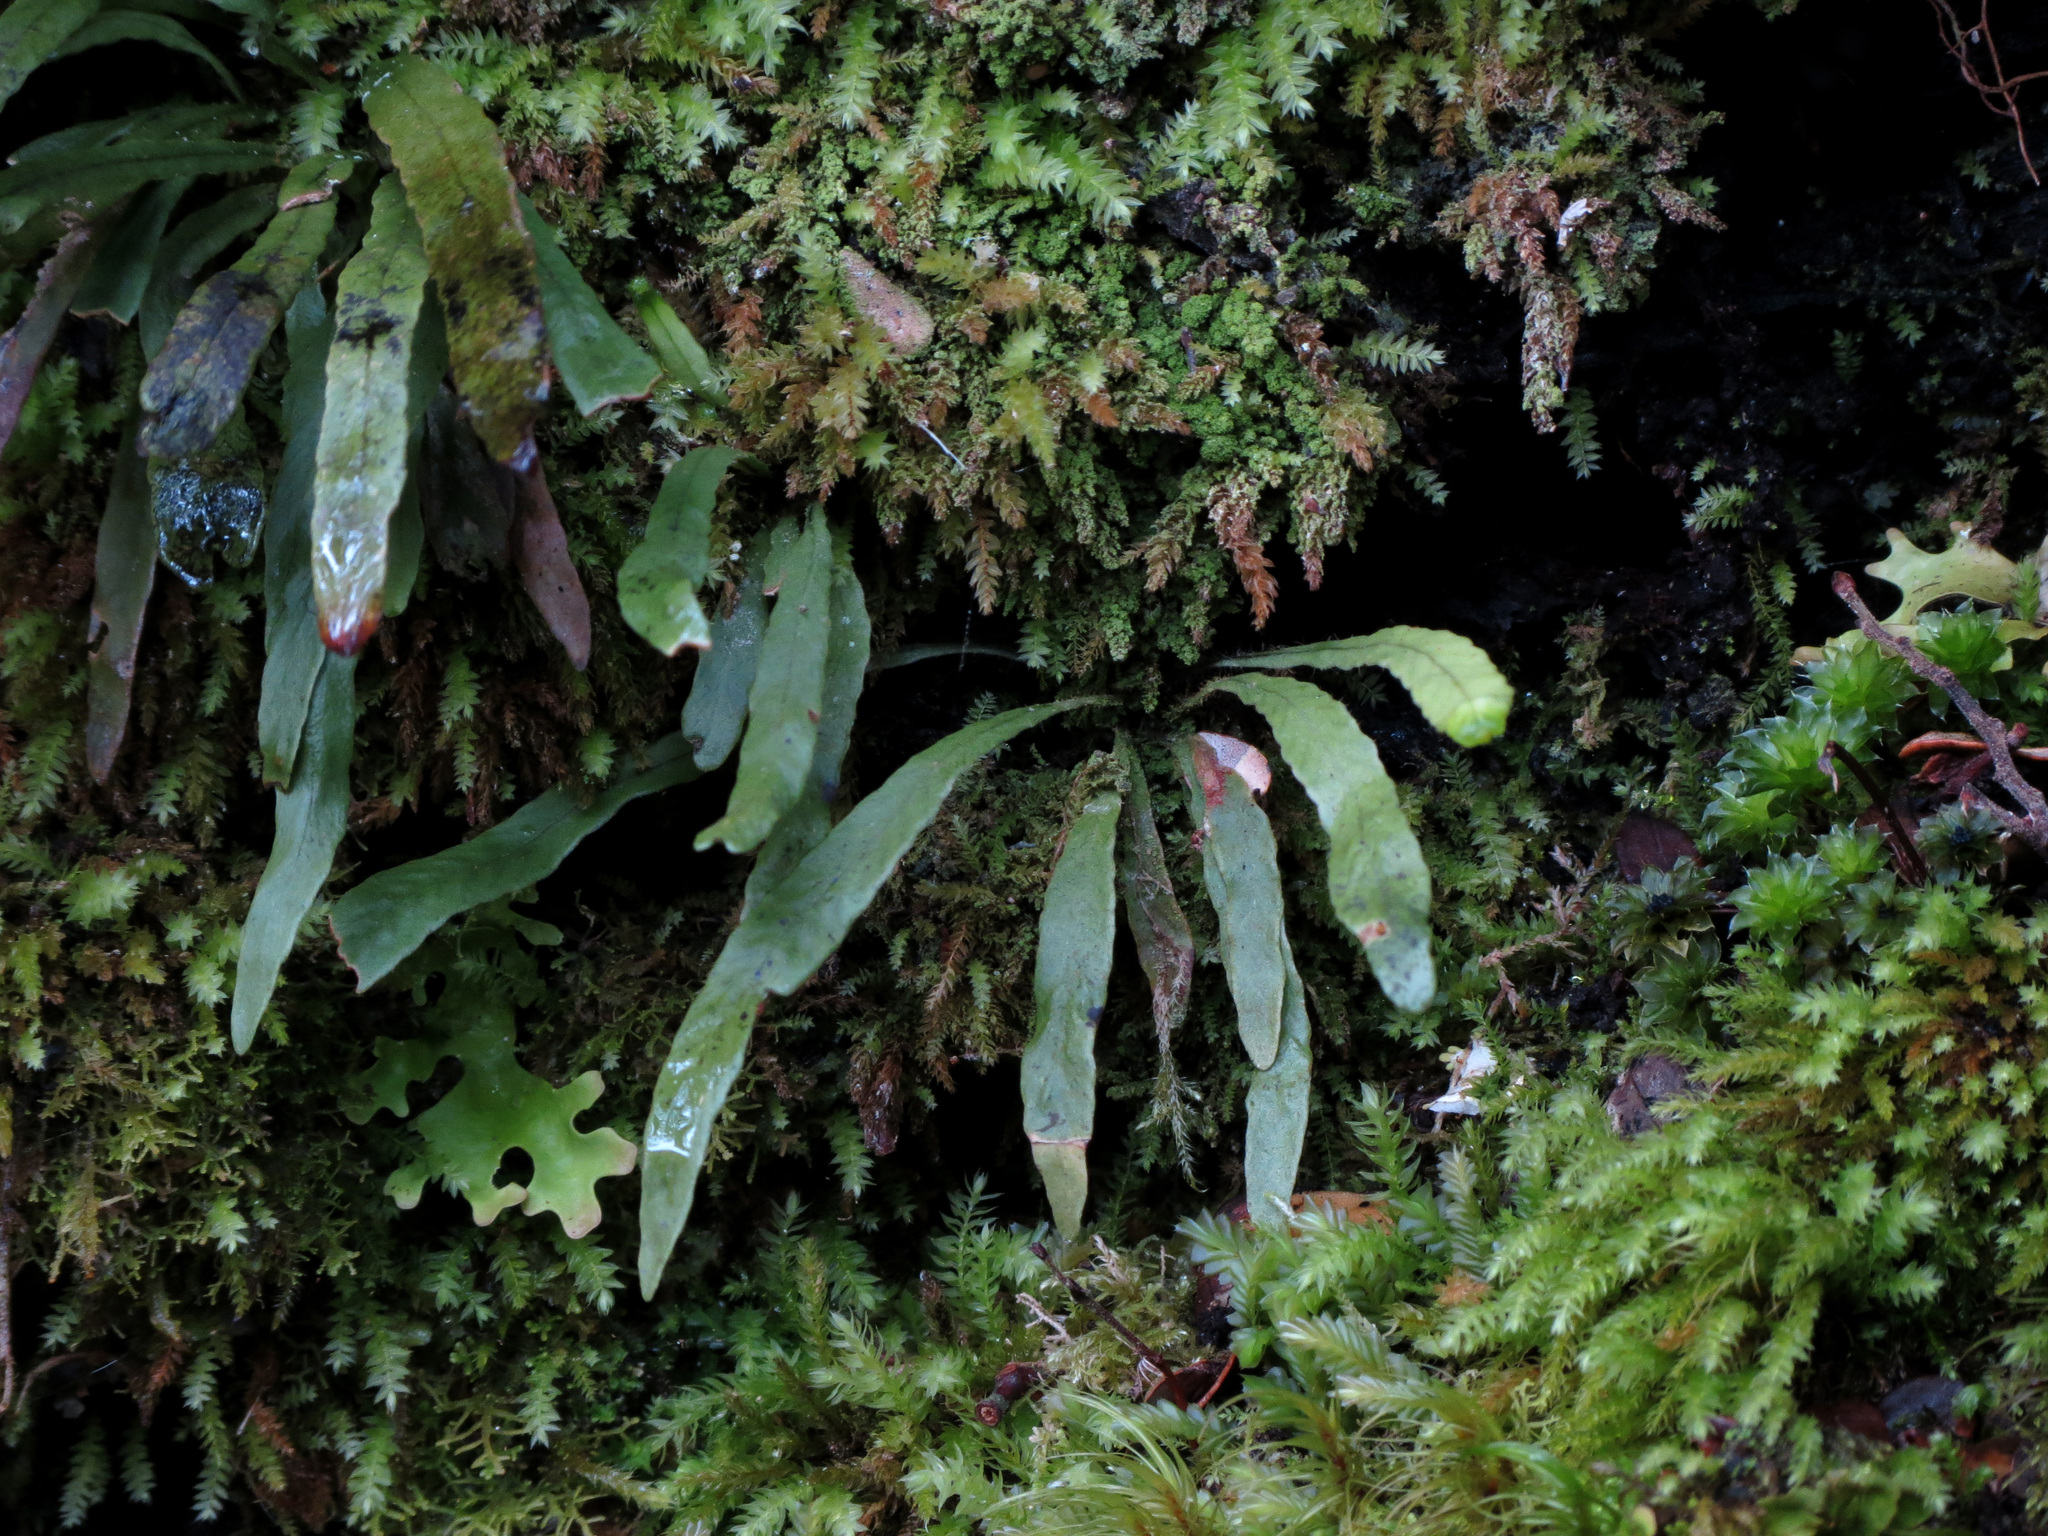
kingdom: Plantae
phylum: Tracheophyta
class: Polypodiopsida
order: Polypodiales
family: Polypodiaceae
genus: Notogrammitis
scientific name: Notogrammitis billardierei
